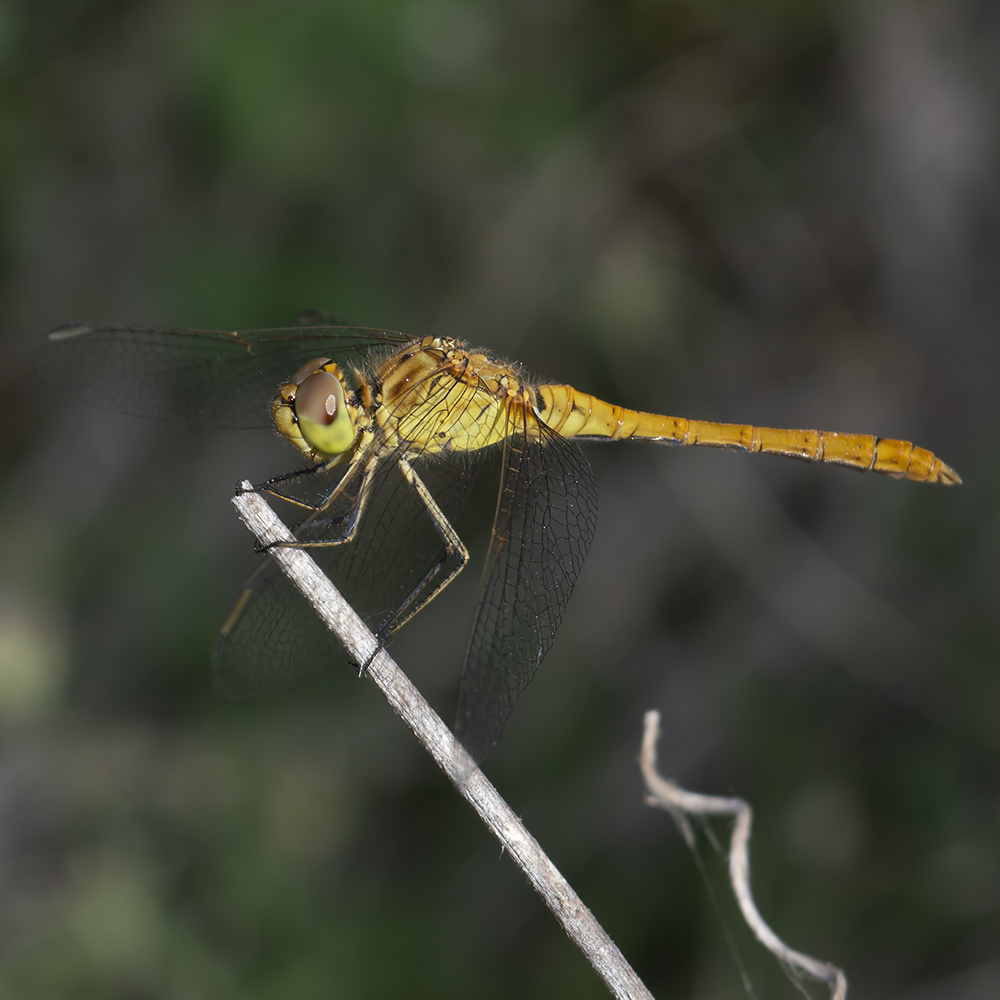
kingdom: Animalia
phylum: Arthropoda
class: Insecta
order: Odonata
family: Libellulidae
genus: Sympetrum
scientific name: Sympetrum meridionale
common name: Southern darter
